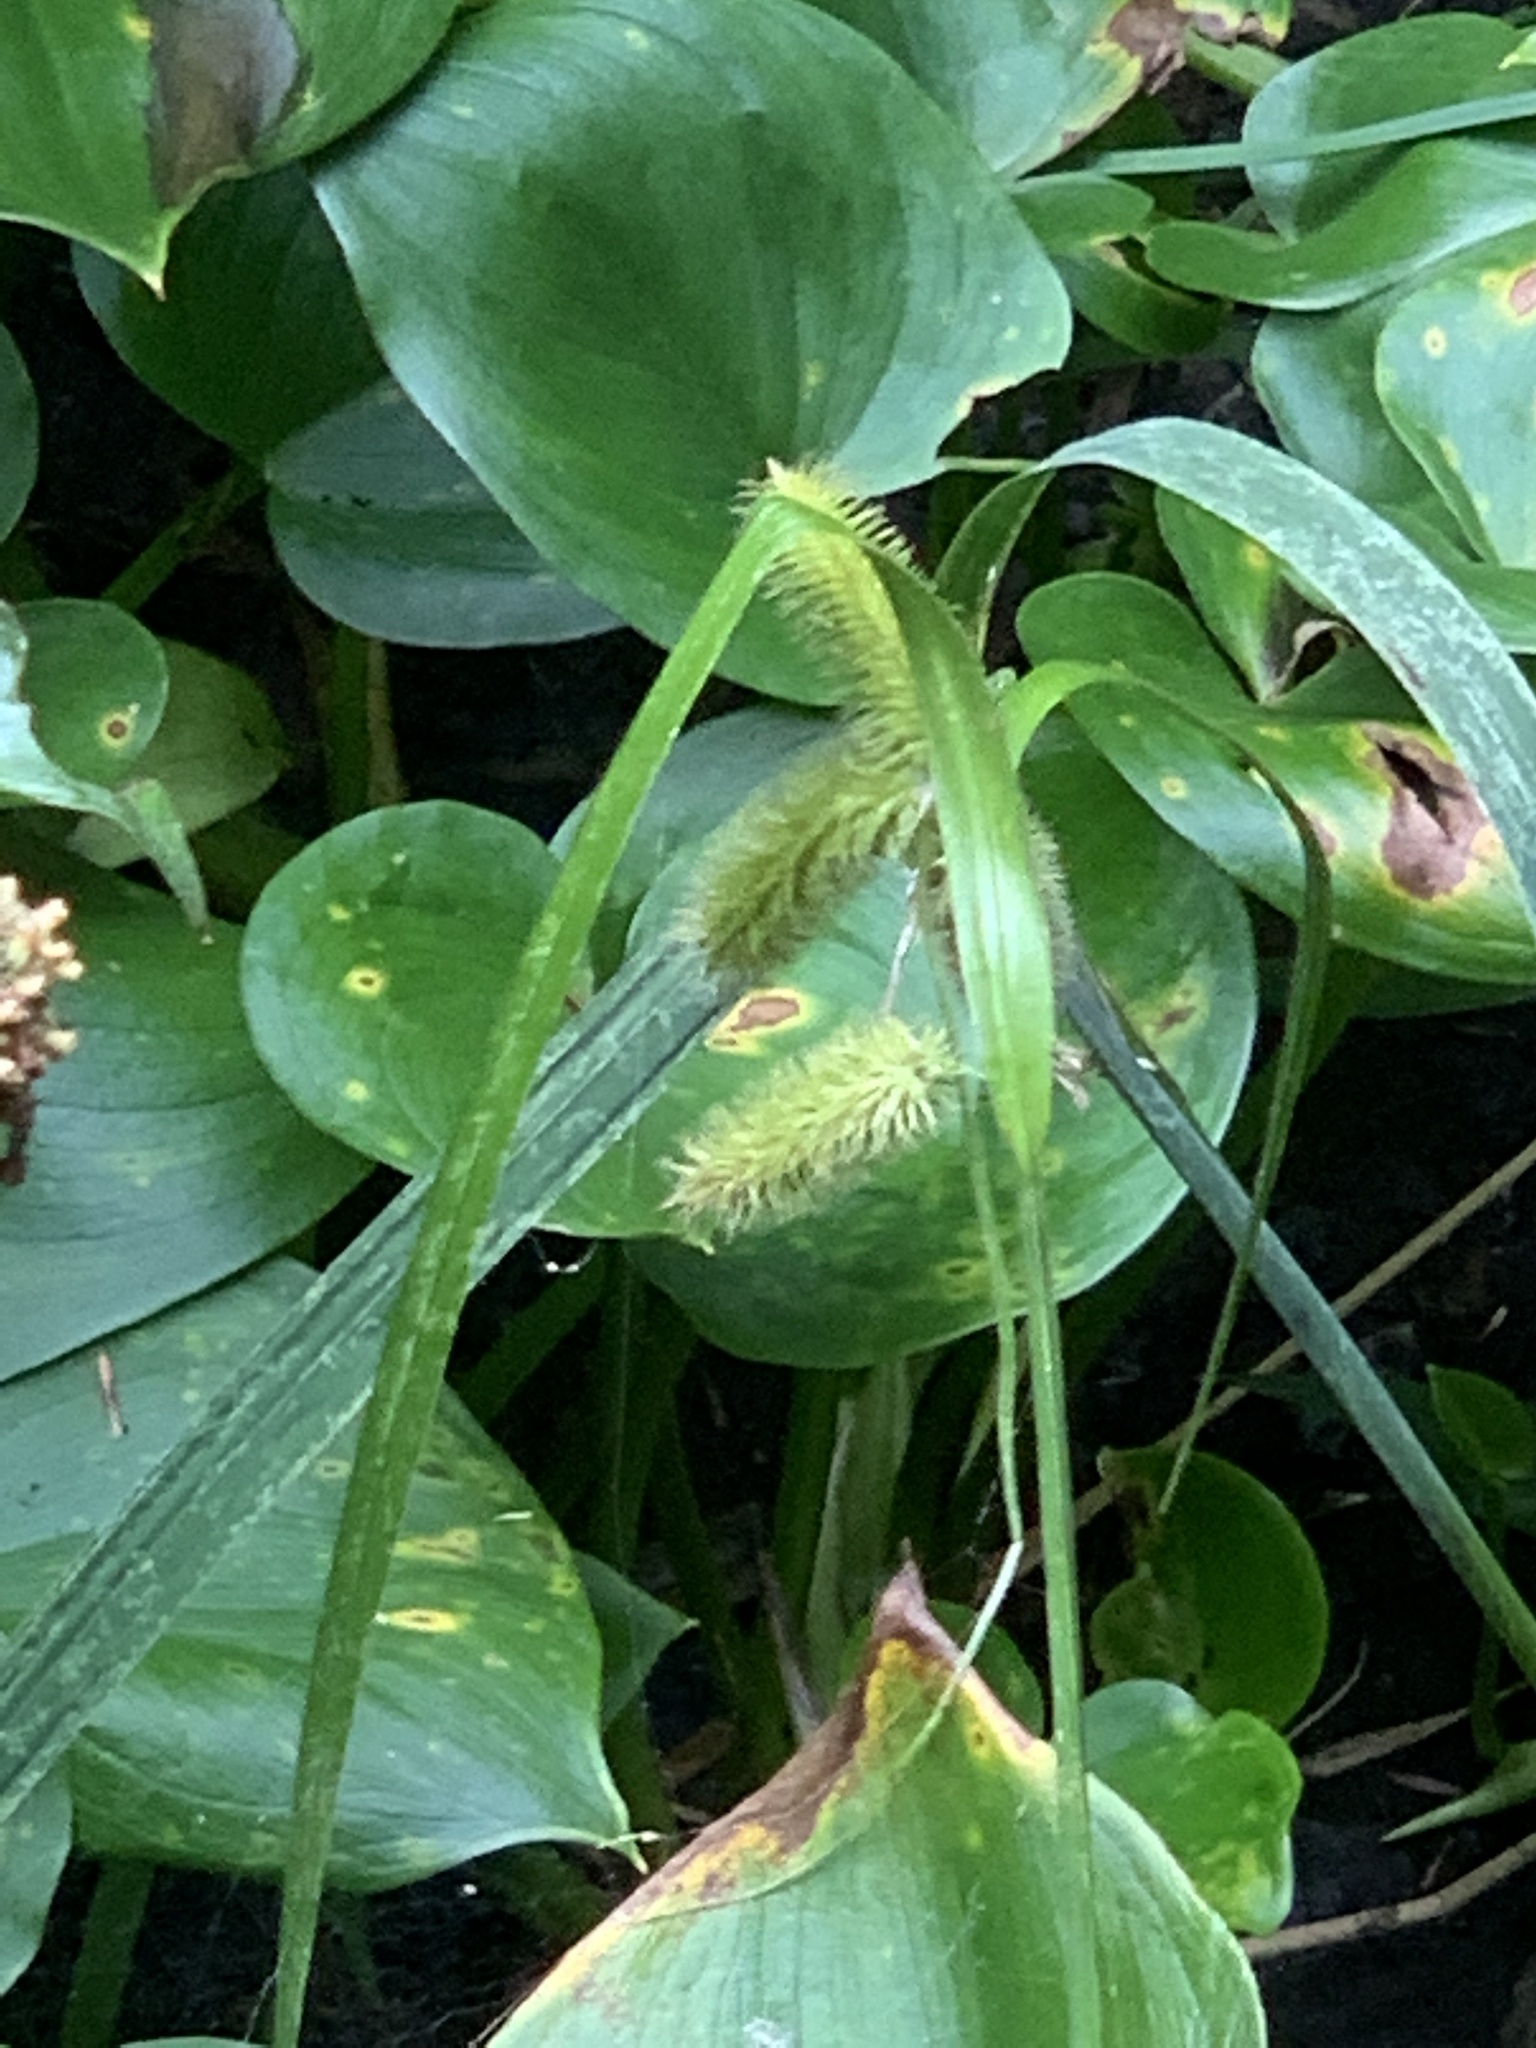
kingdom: Plantae
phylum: Tracheophyta
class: Liliopsida
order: Poales
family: Cyperaceae
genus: Carex
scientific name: Carex comosa
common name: Bristly sedge
